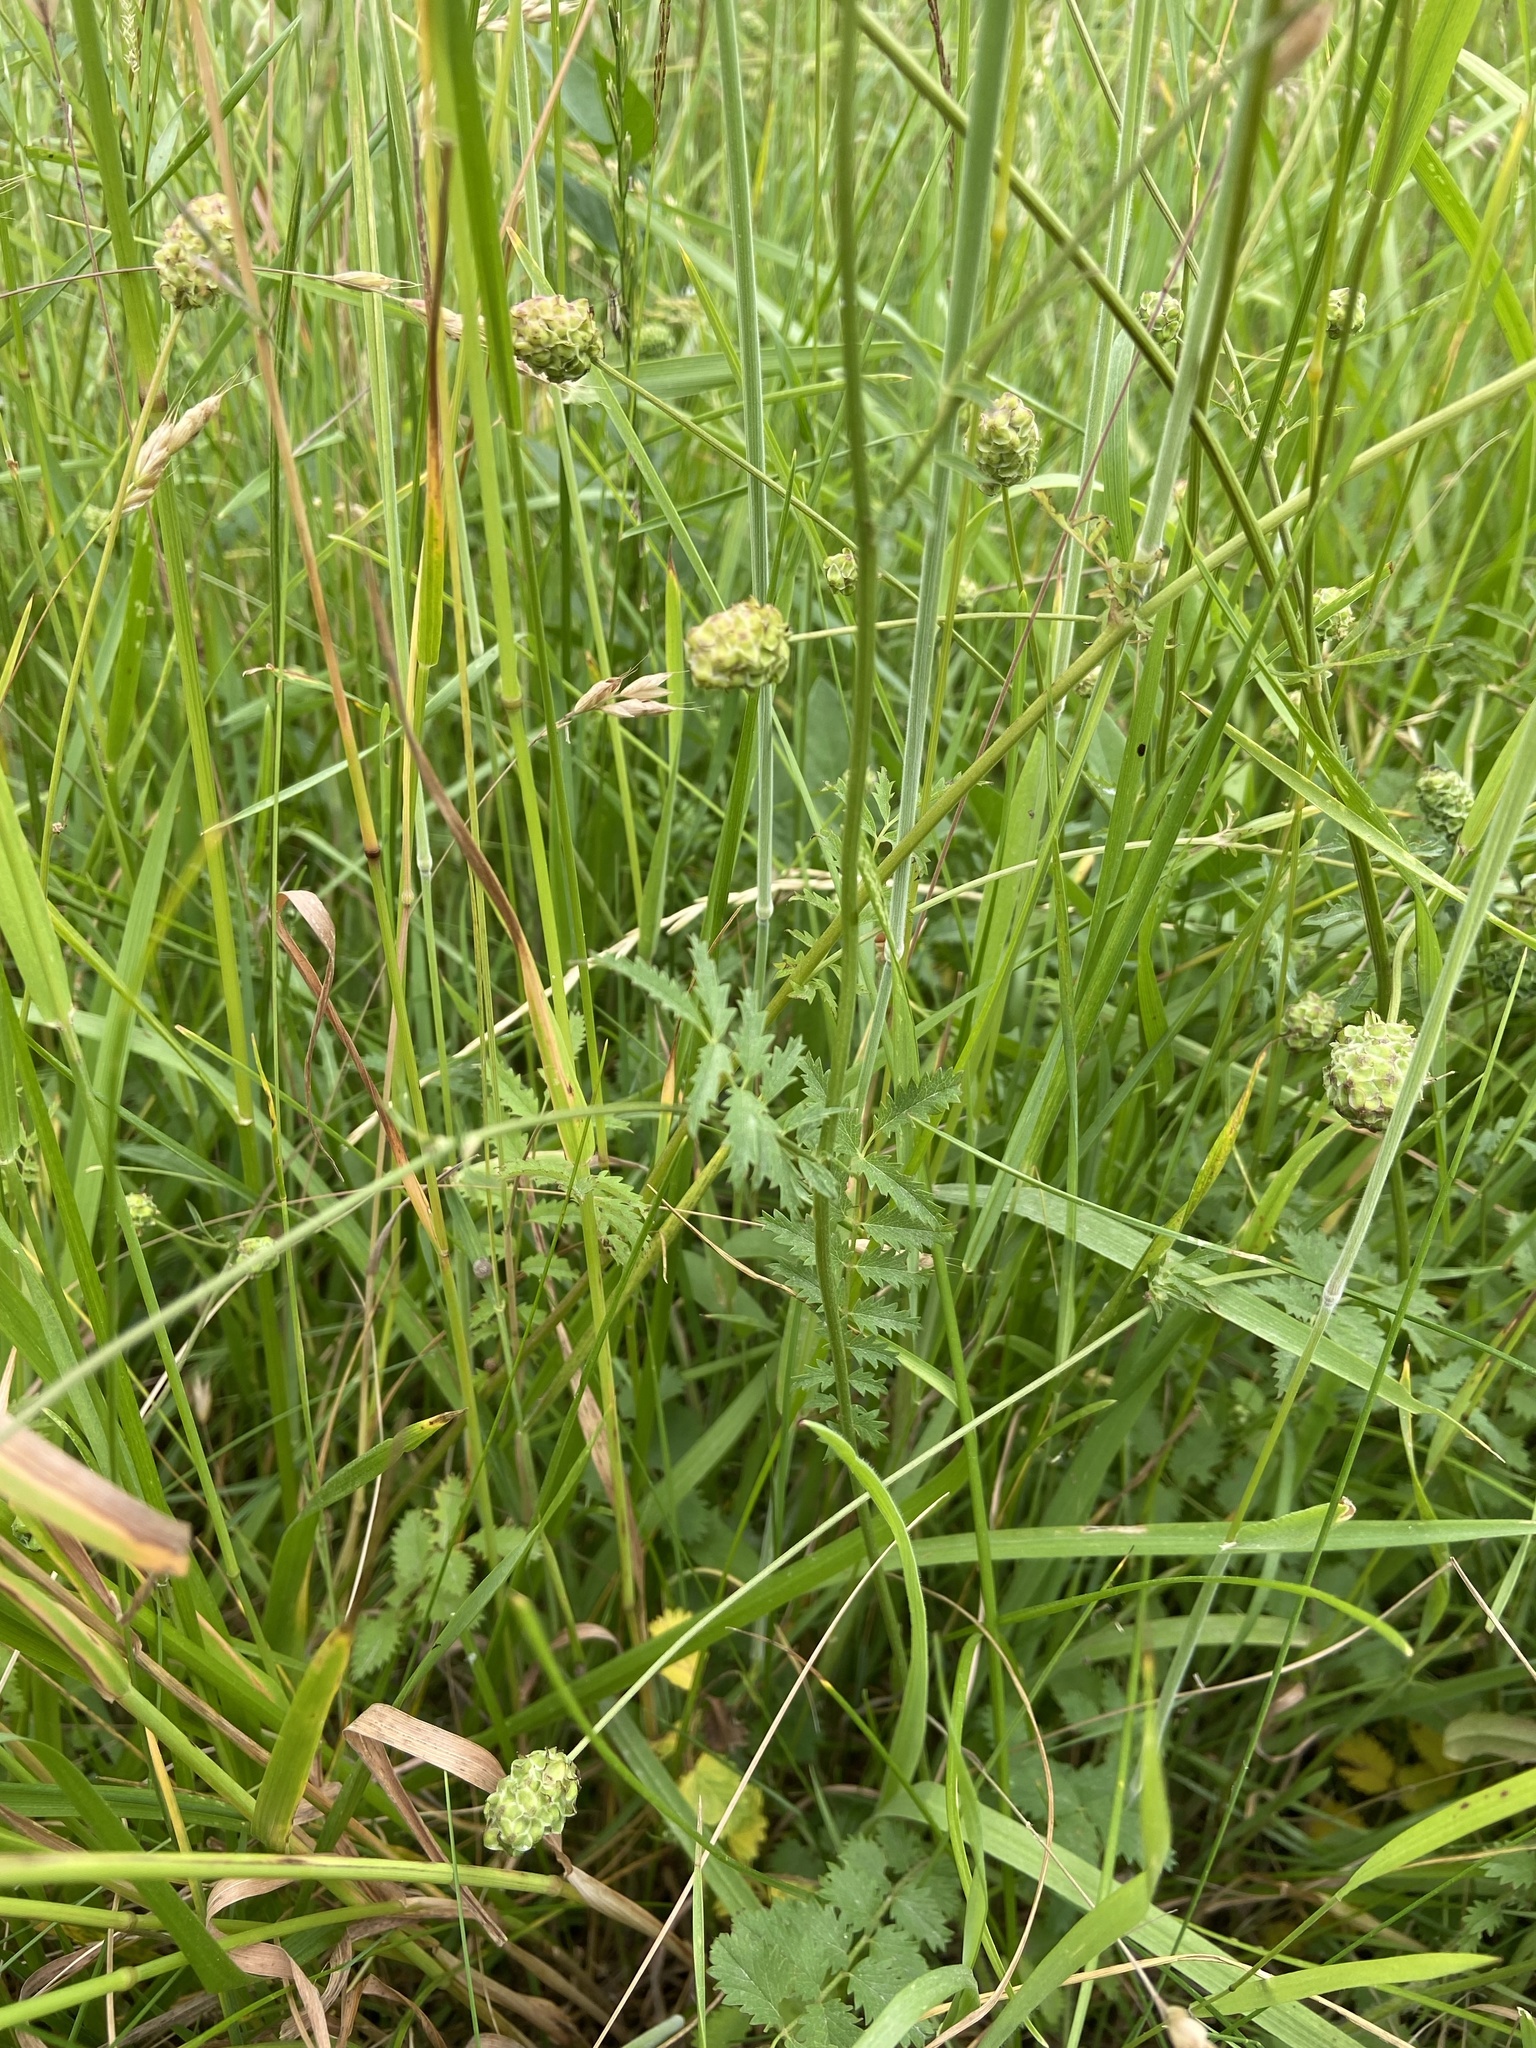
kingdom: Plantae
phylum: Tracheophyta
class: Magnoliopsida
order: Rosales
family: Rosaceae
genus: Poterium
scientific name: Poterium sanguisorba
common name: Salad burnet
